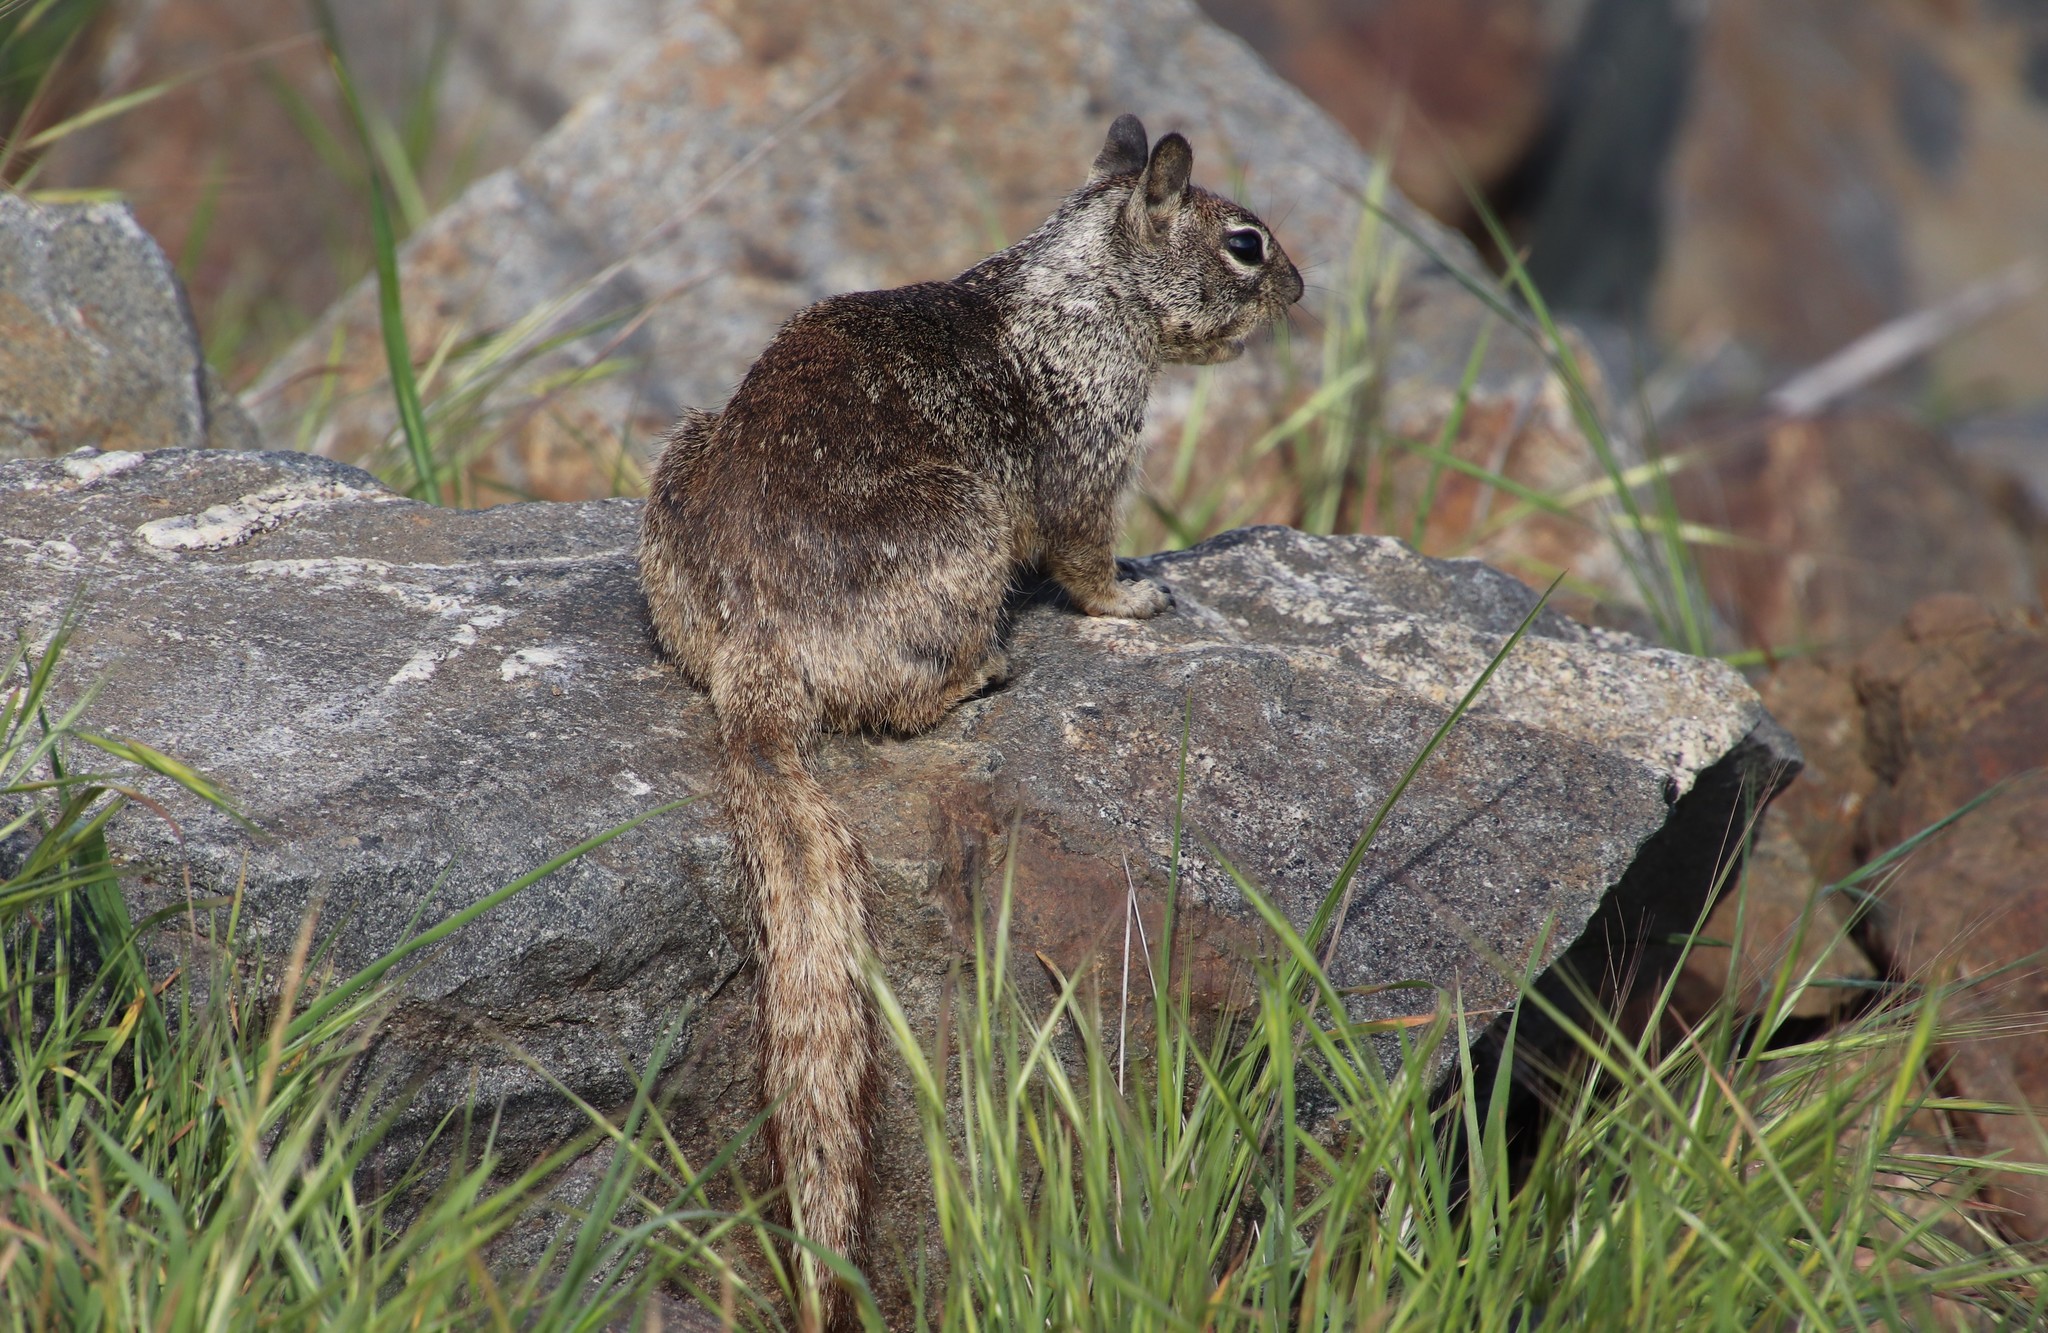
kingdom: Animalia
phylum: Chordata
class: Mammalia
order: Rodentia
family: Sciuridae
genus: Otospermophilus
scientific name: Otospermophilus beecheyi
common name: California ground squirrel
